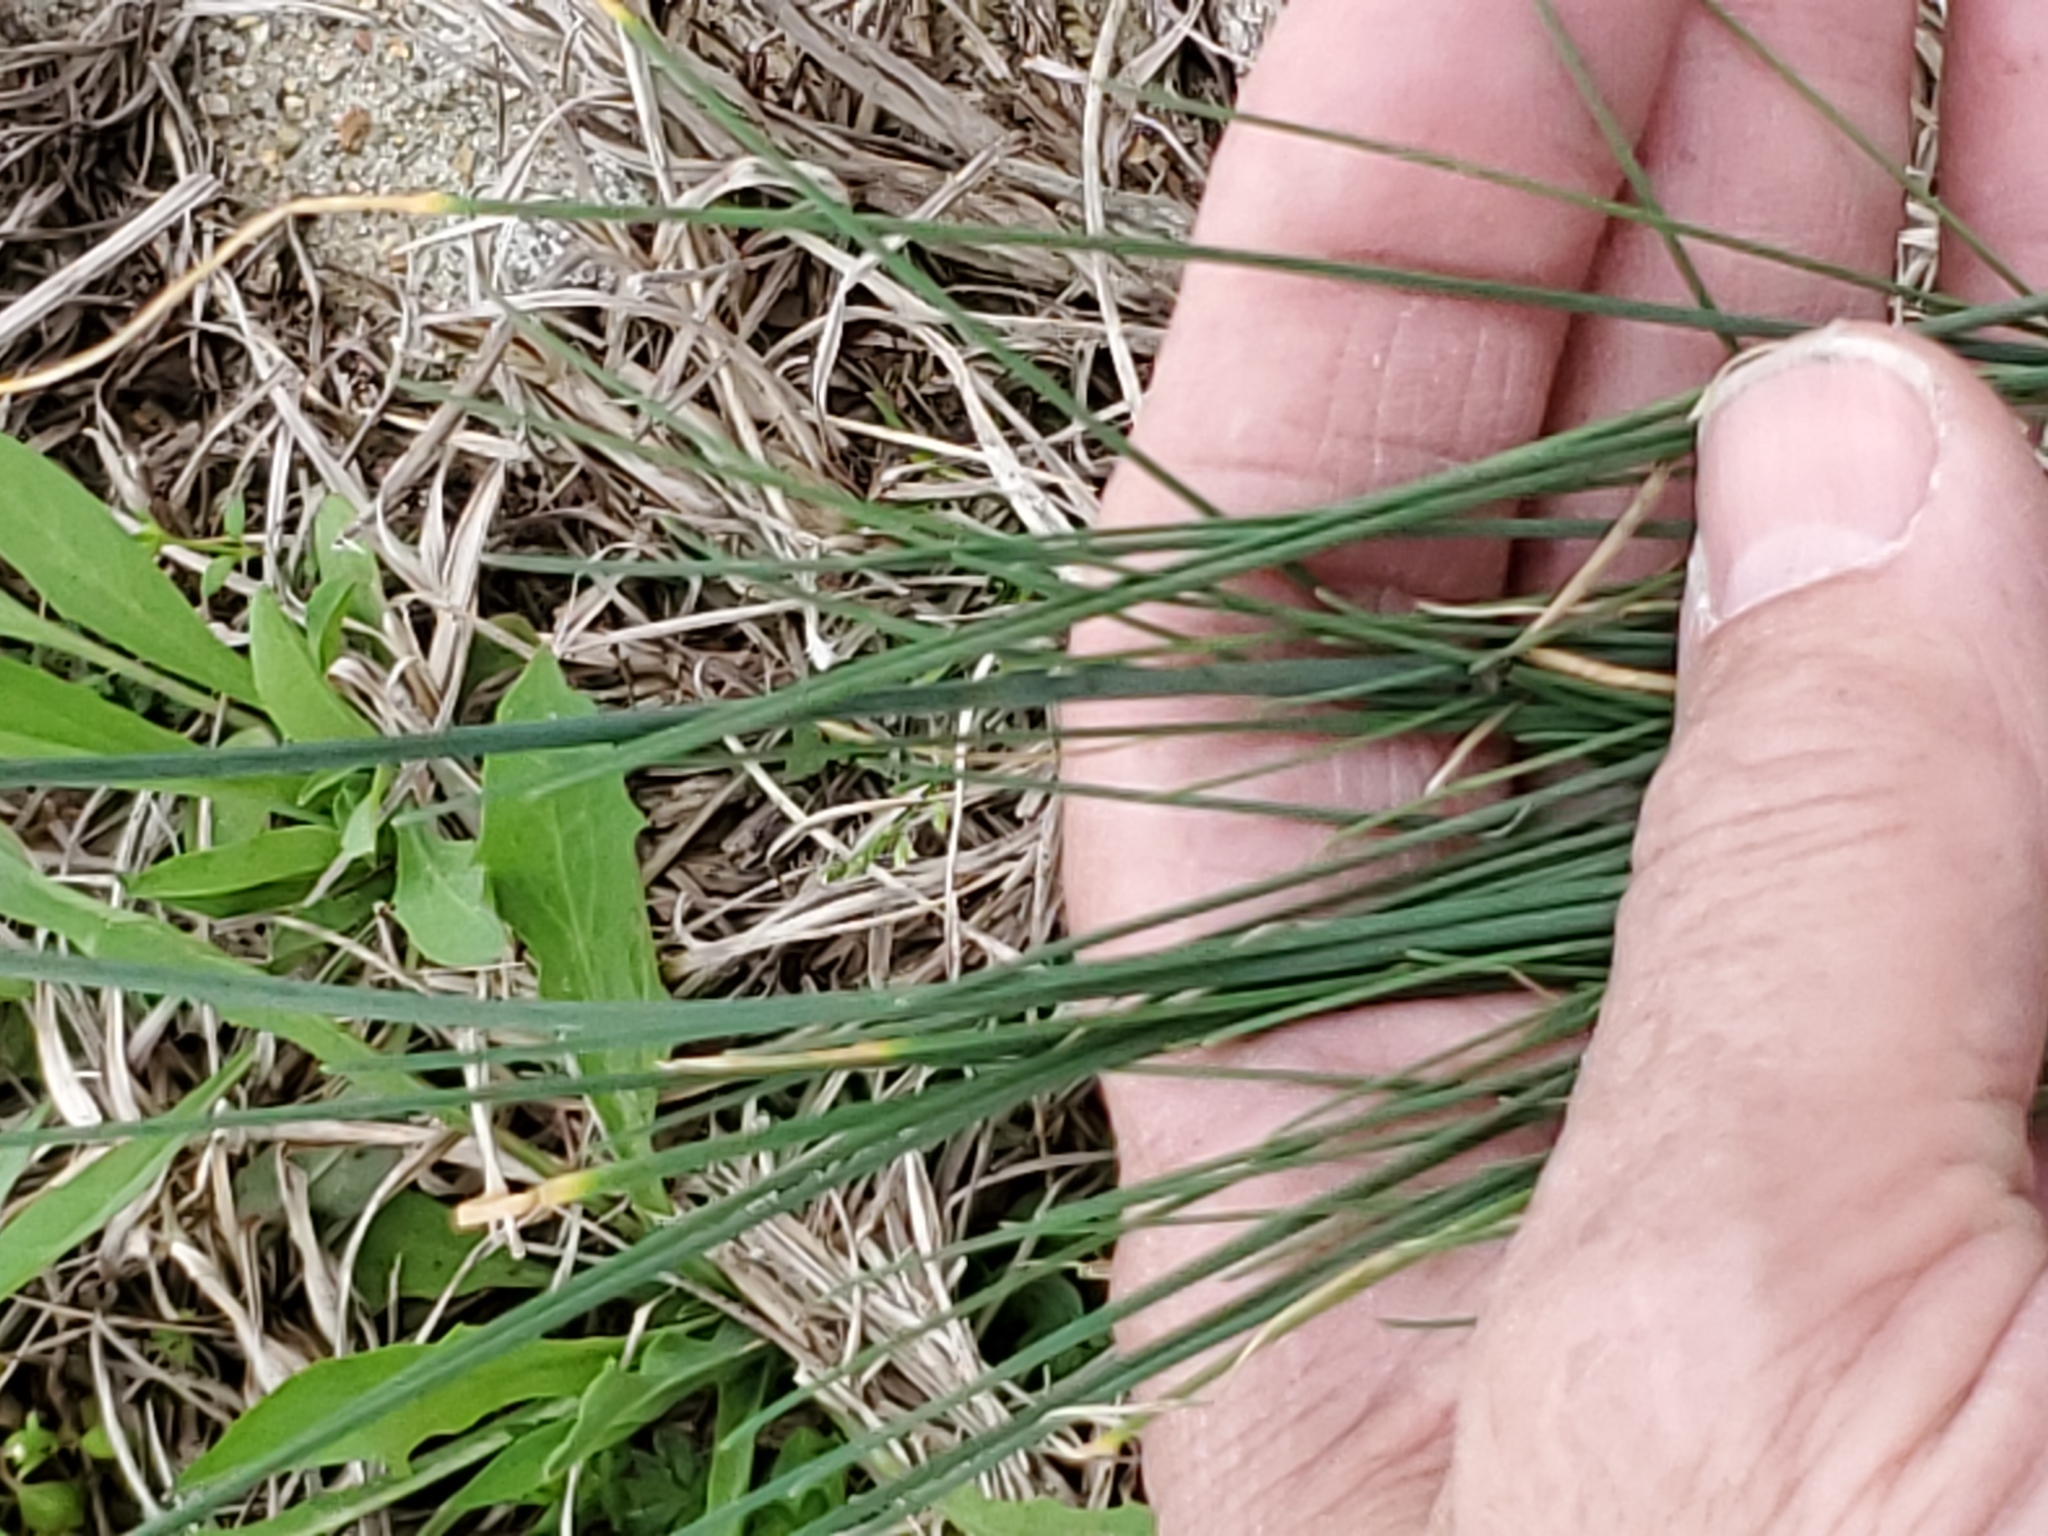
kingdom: Plantae
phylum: Tracheophyta
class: Liliopsida
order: Asparagales
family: Amaryllidaceae
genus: Allium
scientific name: Allium vineale
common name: Crow garlic
